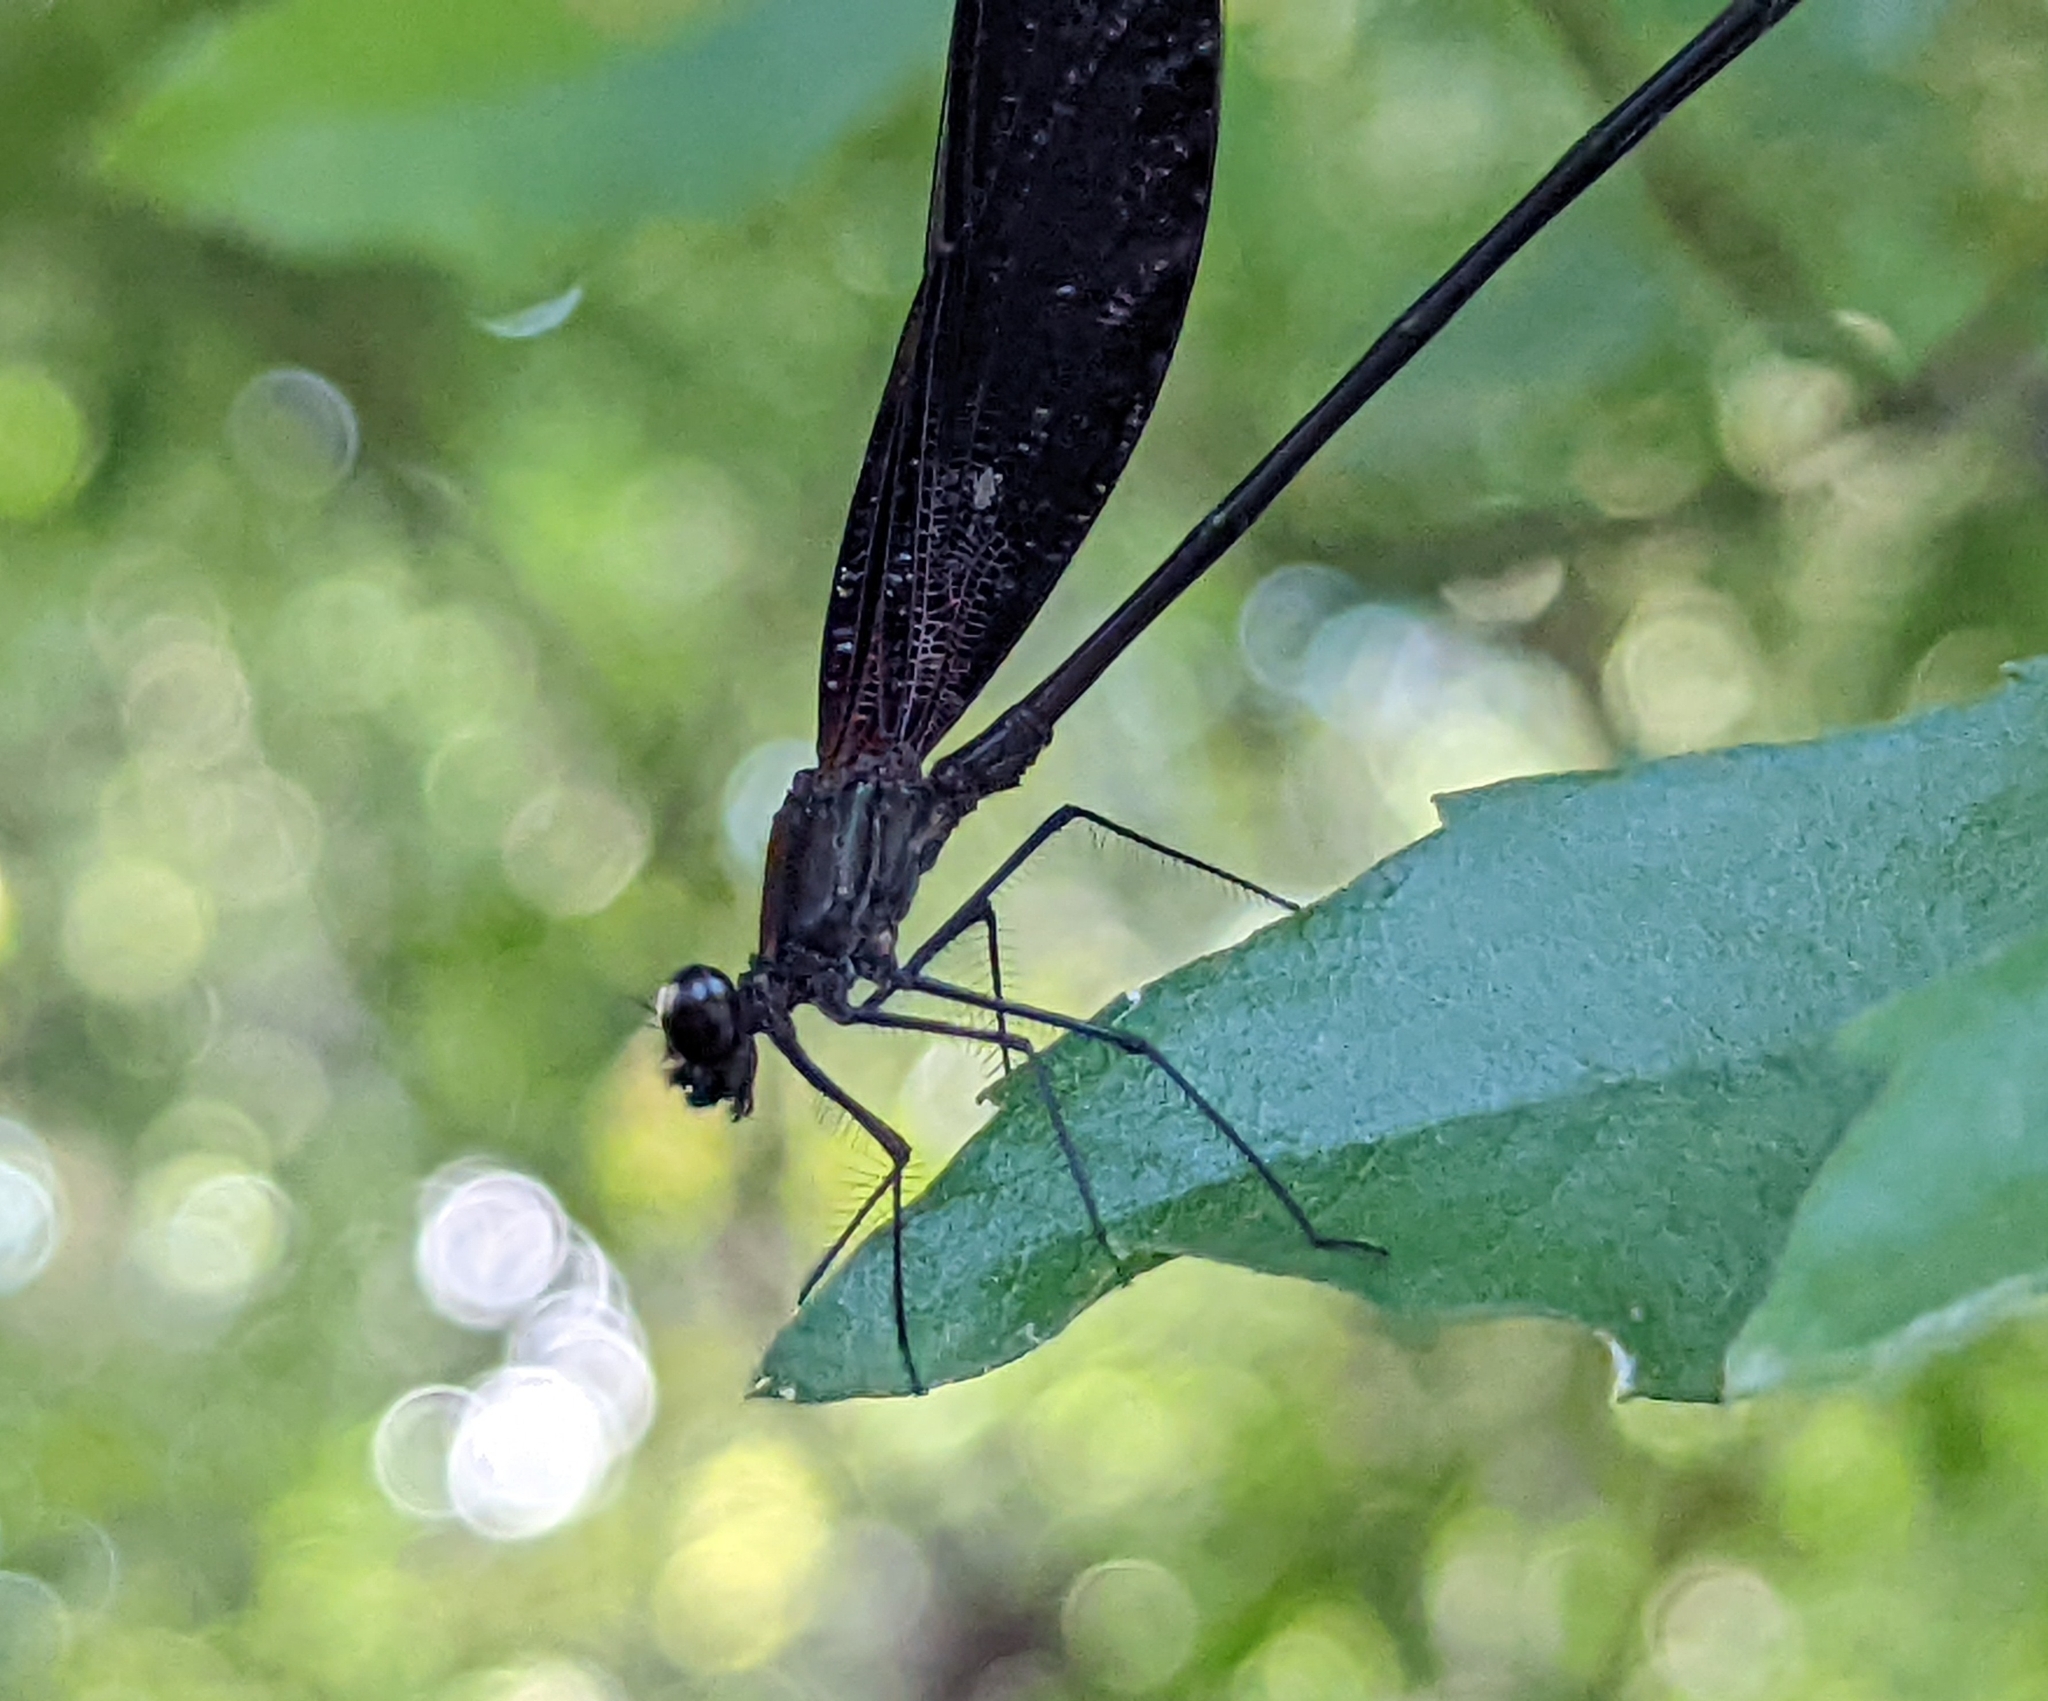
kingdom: Animalia
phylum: Arthropoda
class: Insecta
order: Odonata
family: Calopterygidae
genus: Hetaerina
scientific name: Hetaerina titia
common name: Smoky rubyspot
